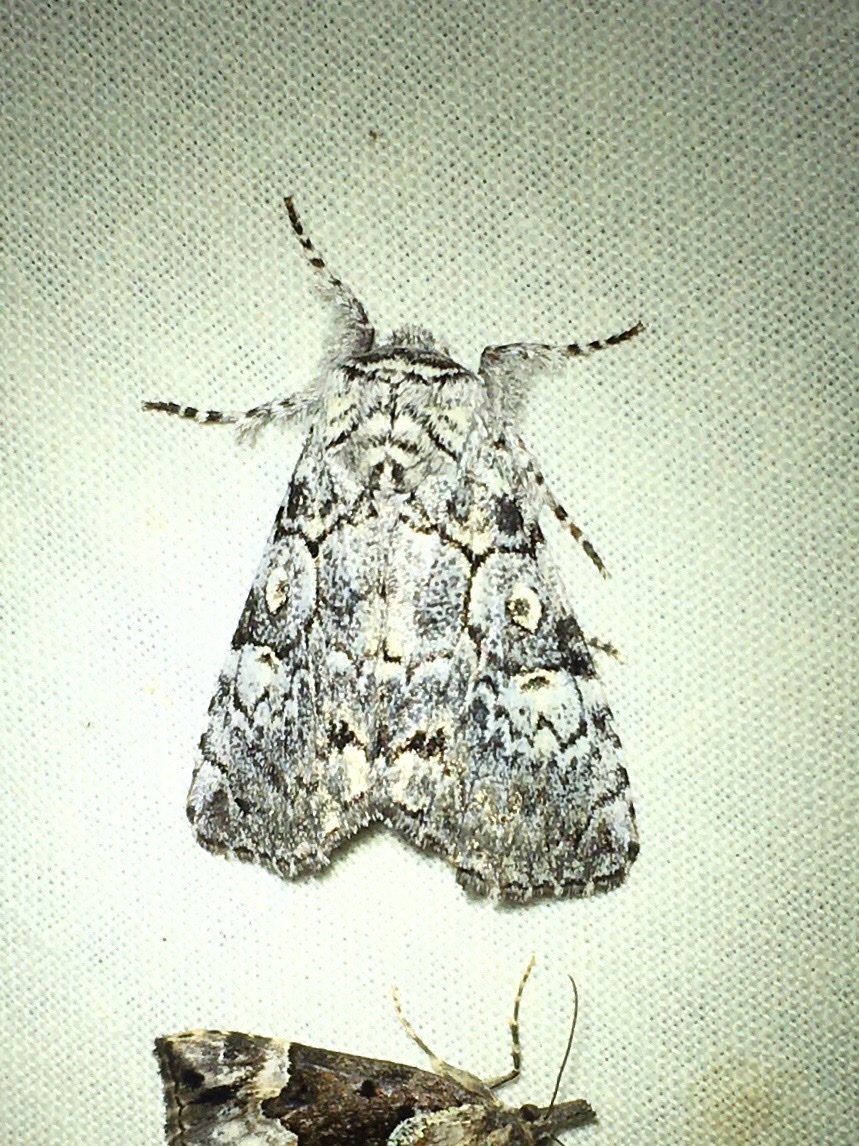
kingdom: Animalia
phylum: Arthropoda
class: Insecta
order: Lepidoptera
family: Noctuidae
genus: Charadra
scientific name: Charadra deridens
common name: Marbled tuffet
